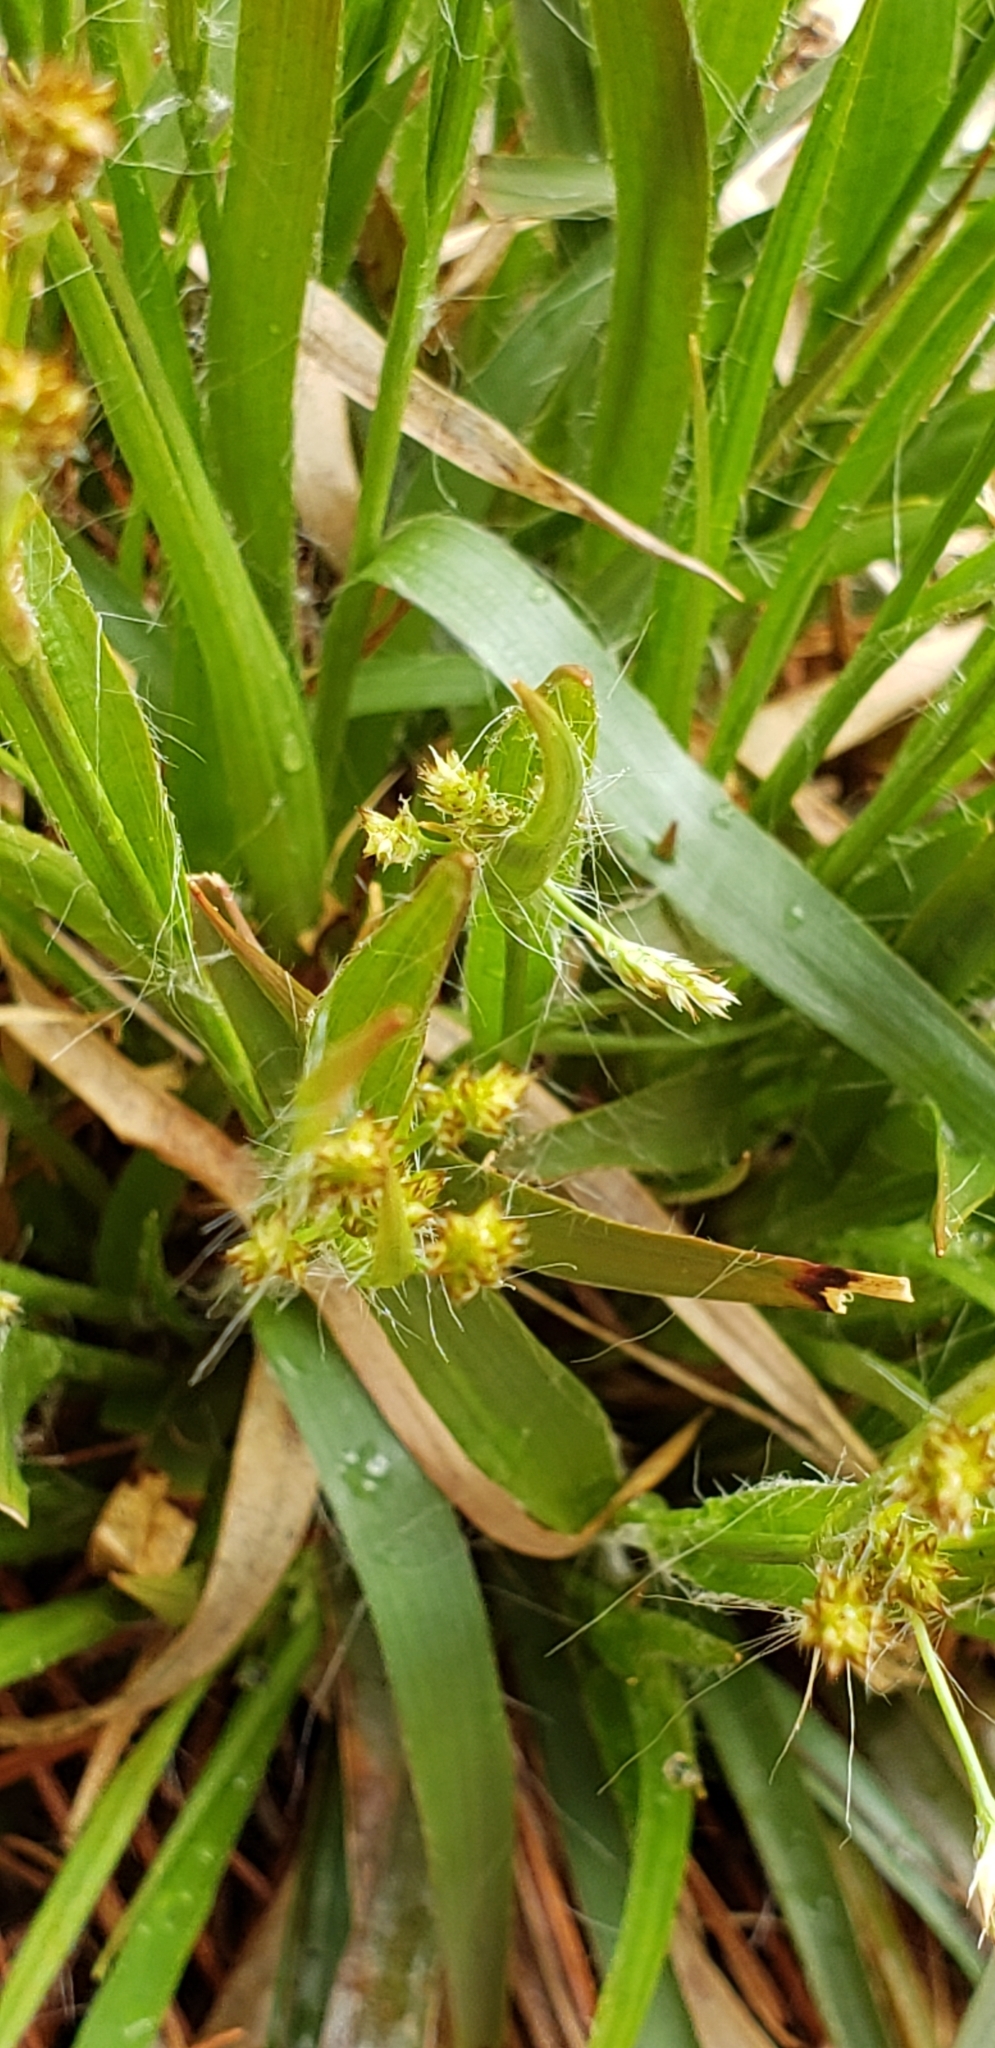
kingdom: Plantae
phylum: Tracheophyta
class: Liliopsida
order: Poales
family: Juncaceae
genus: Luzula
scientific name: Luzula multiflora
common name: Heath wood-rush
